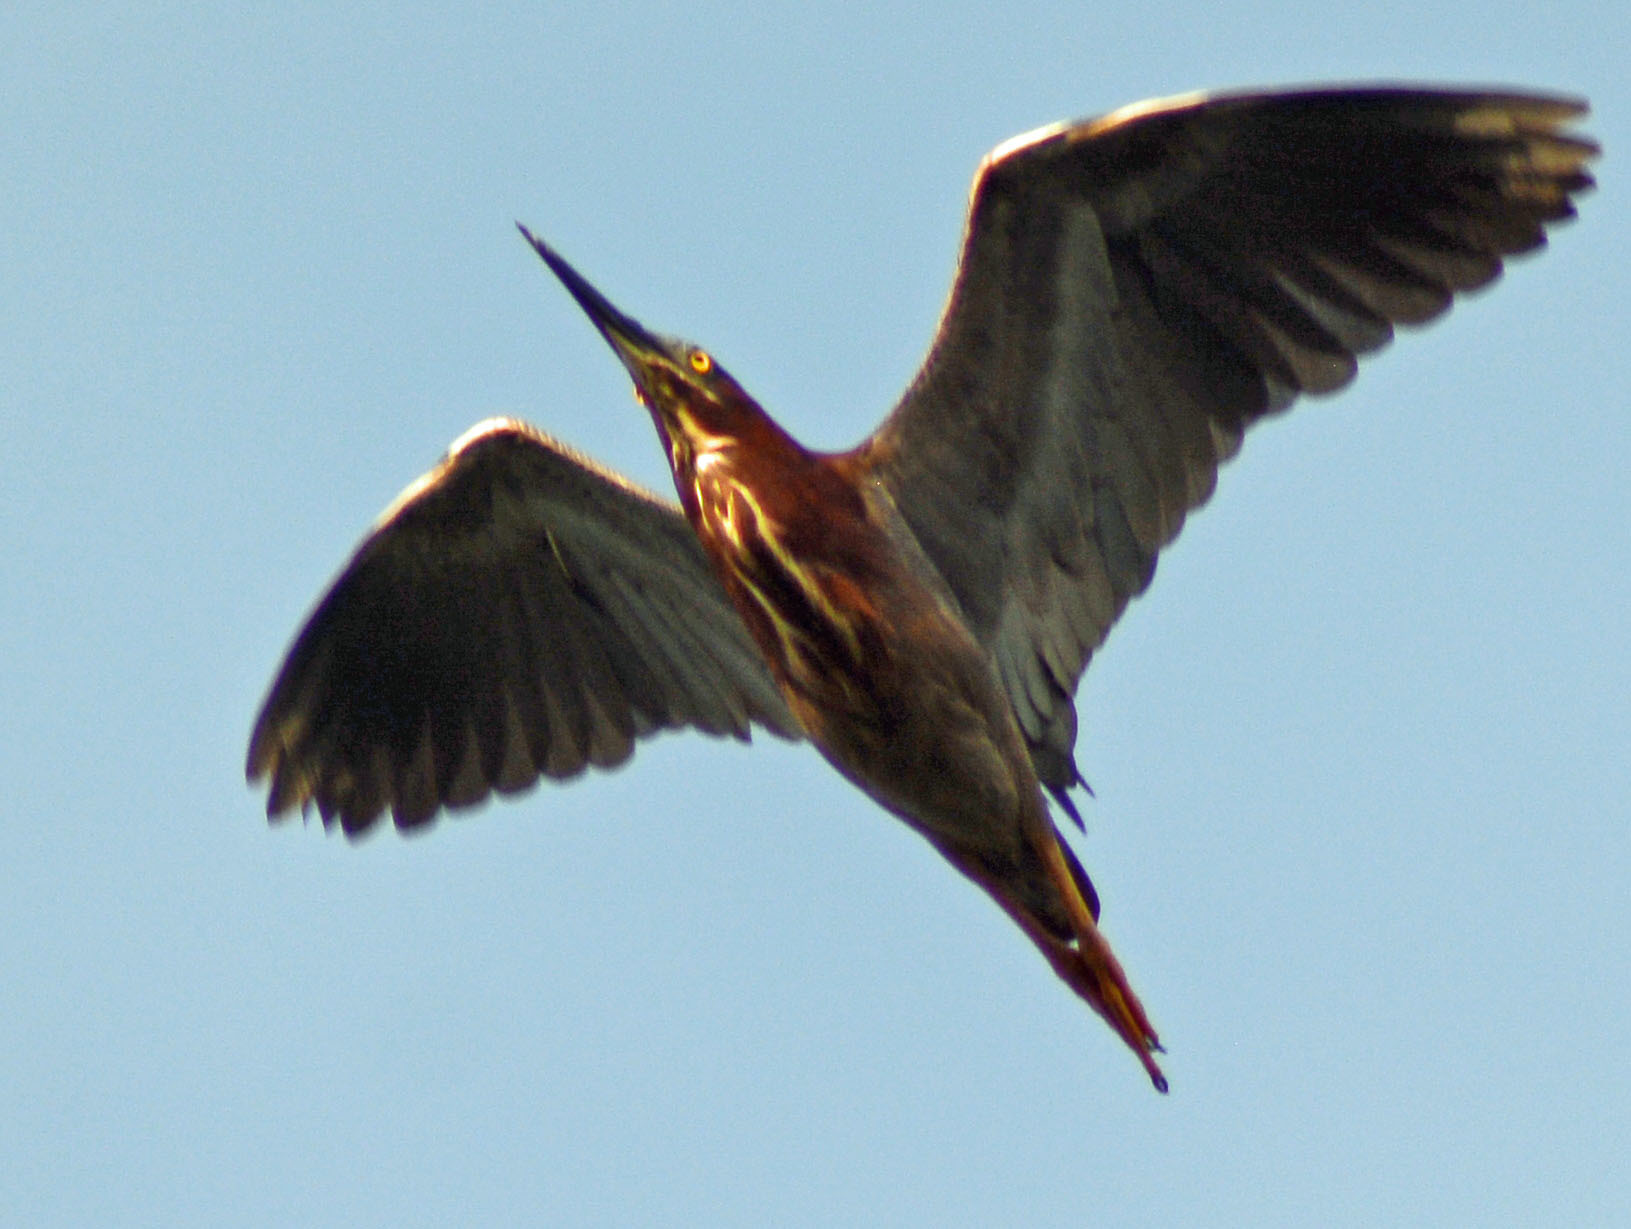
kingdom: Animalia
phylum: Chordata
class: Aves
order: Pelecaniformes
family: Ardeidae
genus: Butorides
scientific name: Butorides virescens
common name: Green heron
